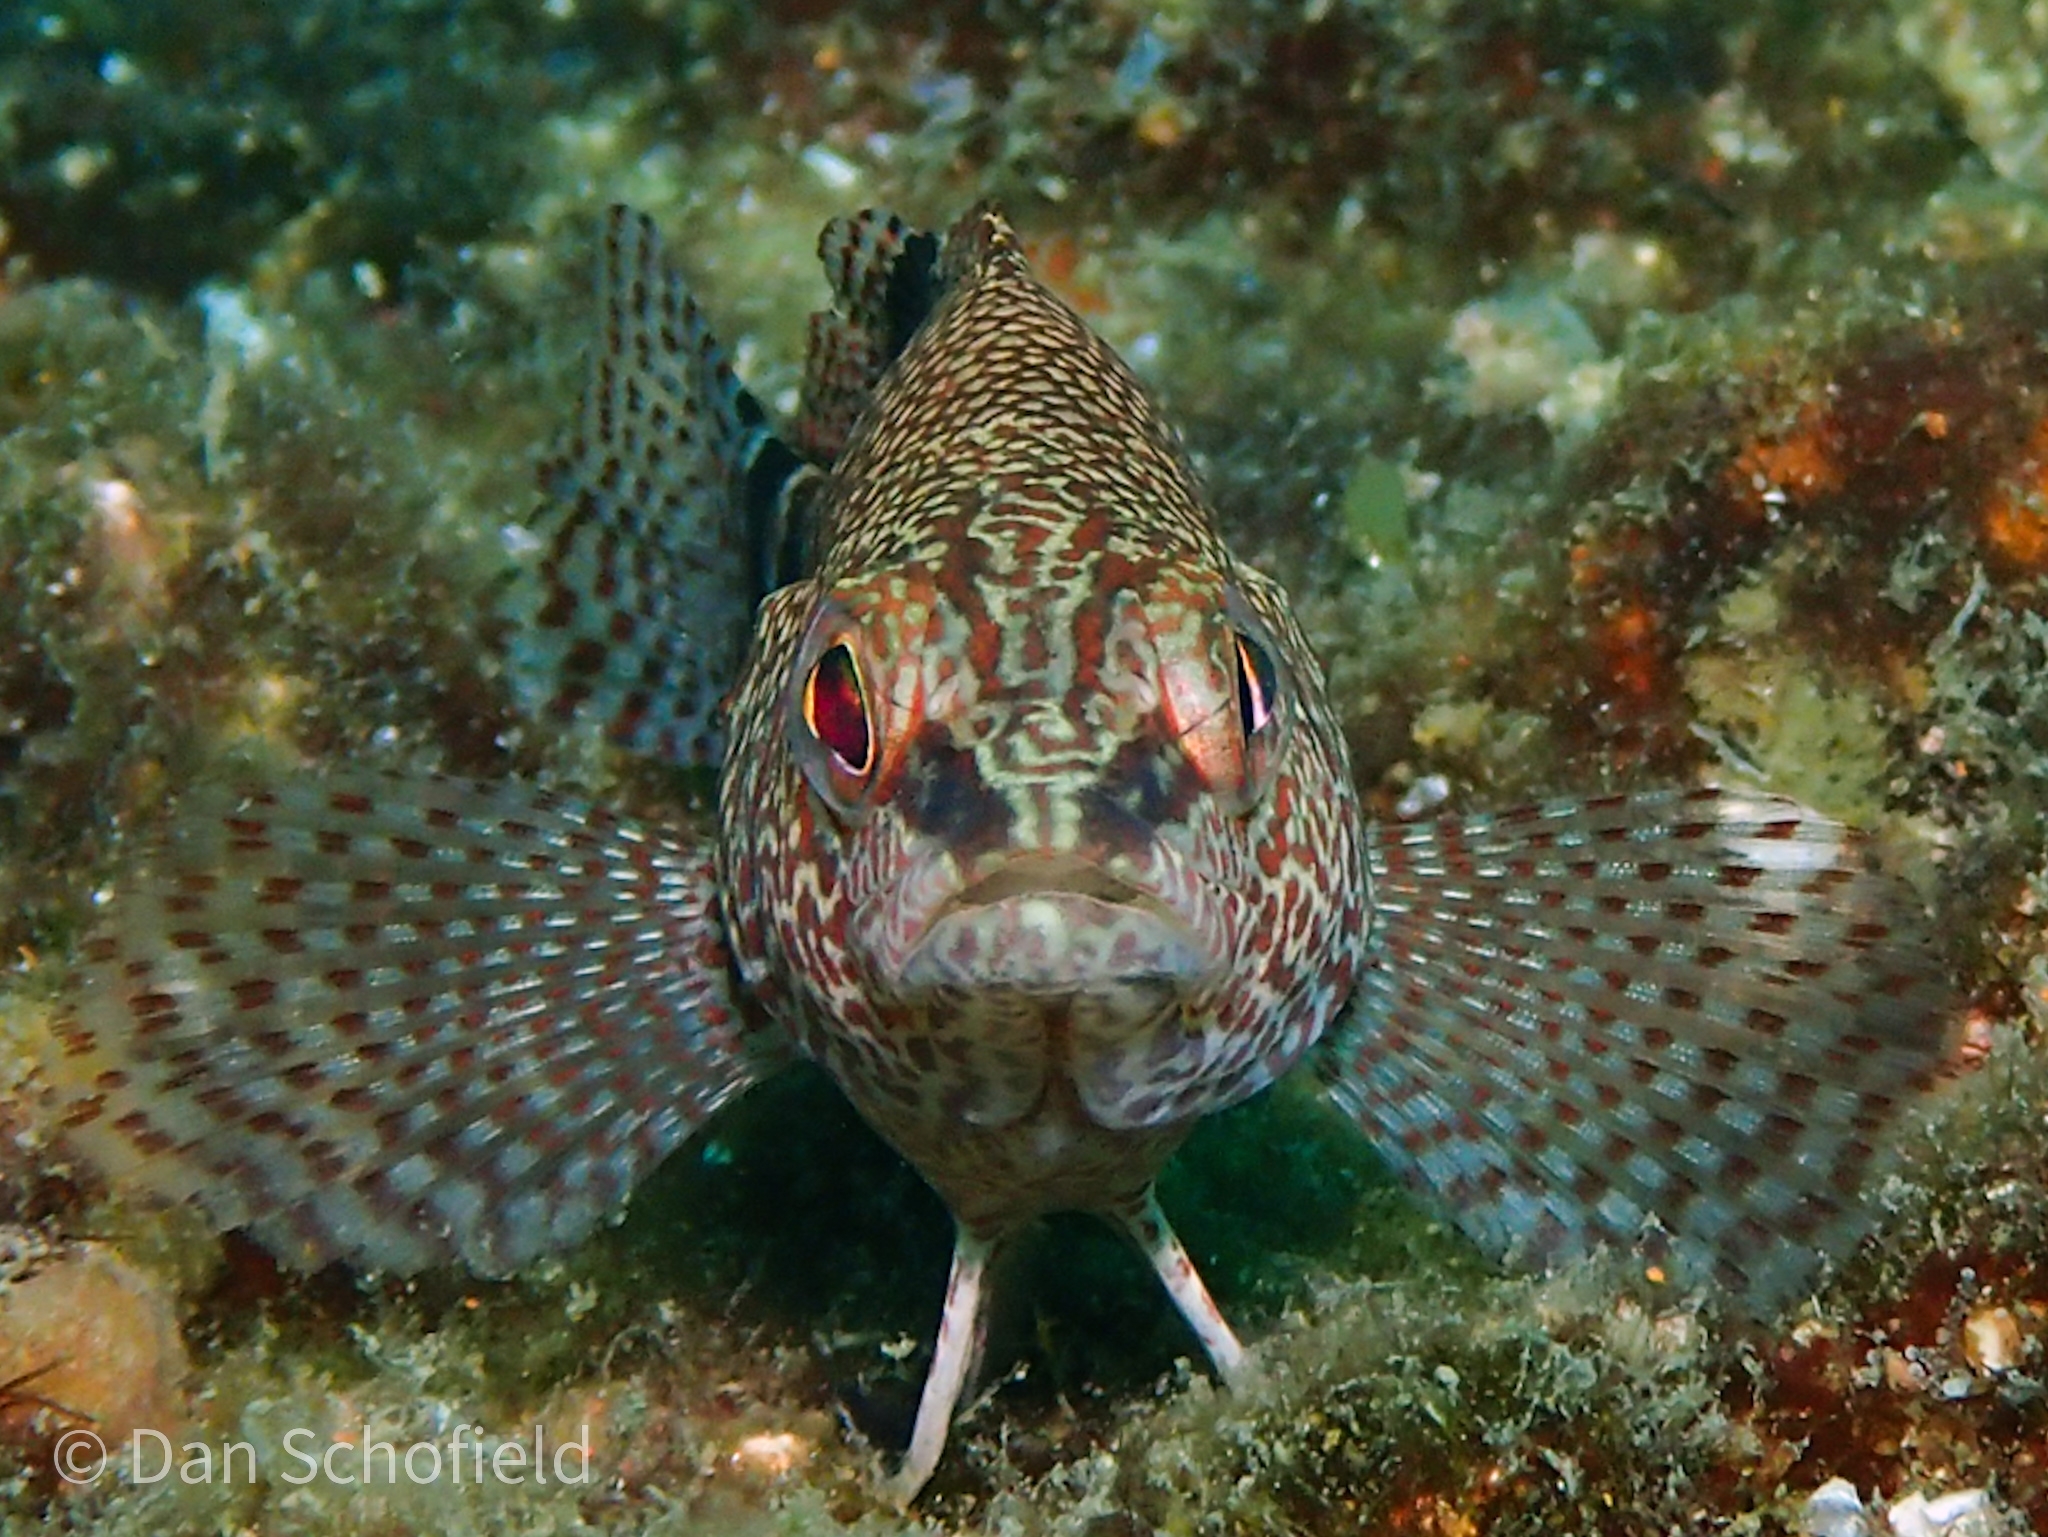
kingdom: Animalia
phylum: Chordata
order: Perciformes
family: Serranidae
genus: Serranus
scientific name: Serranus subligarius
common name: Belted sandfish
